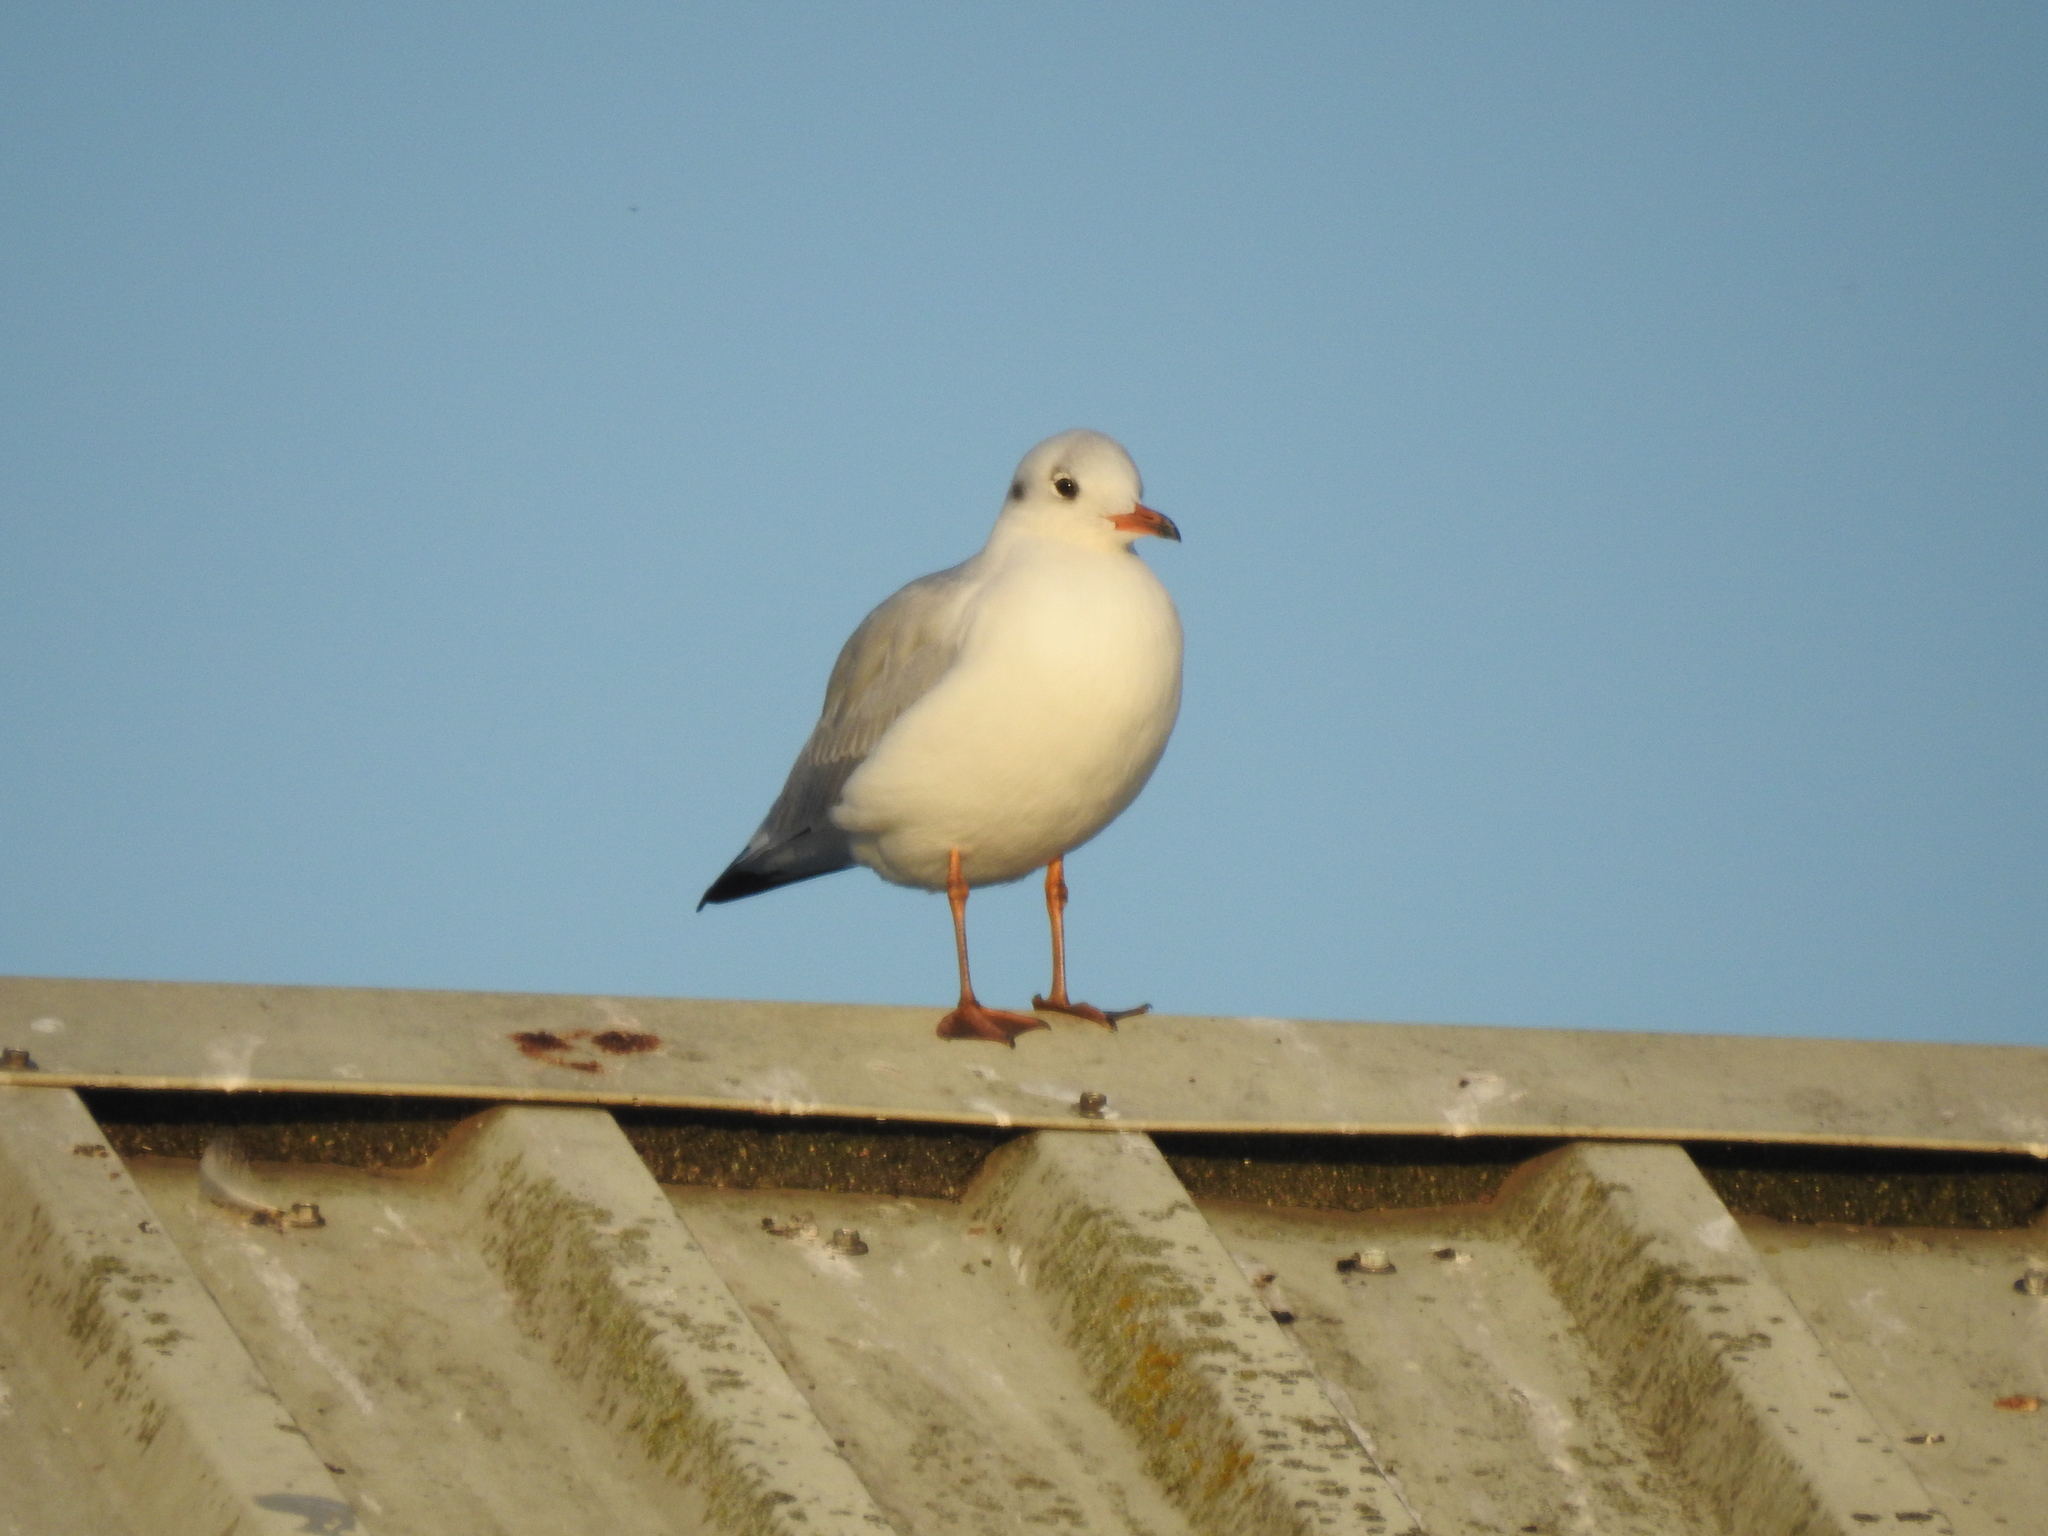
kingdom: Animalia
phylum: Chordata
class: Aves
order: Charadriiformes
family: Laridae
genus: Chroicocephalus
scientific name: Chroicocephalus ridibundus
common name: Black-headed gull
